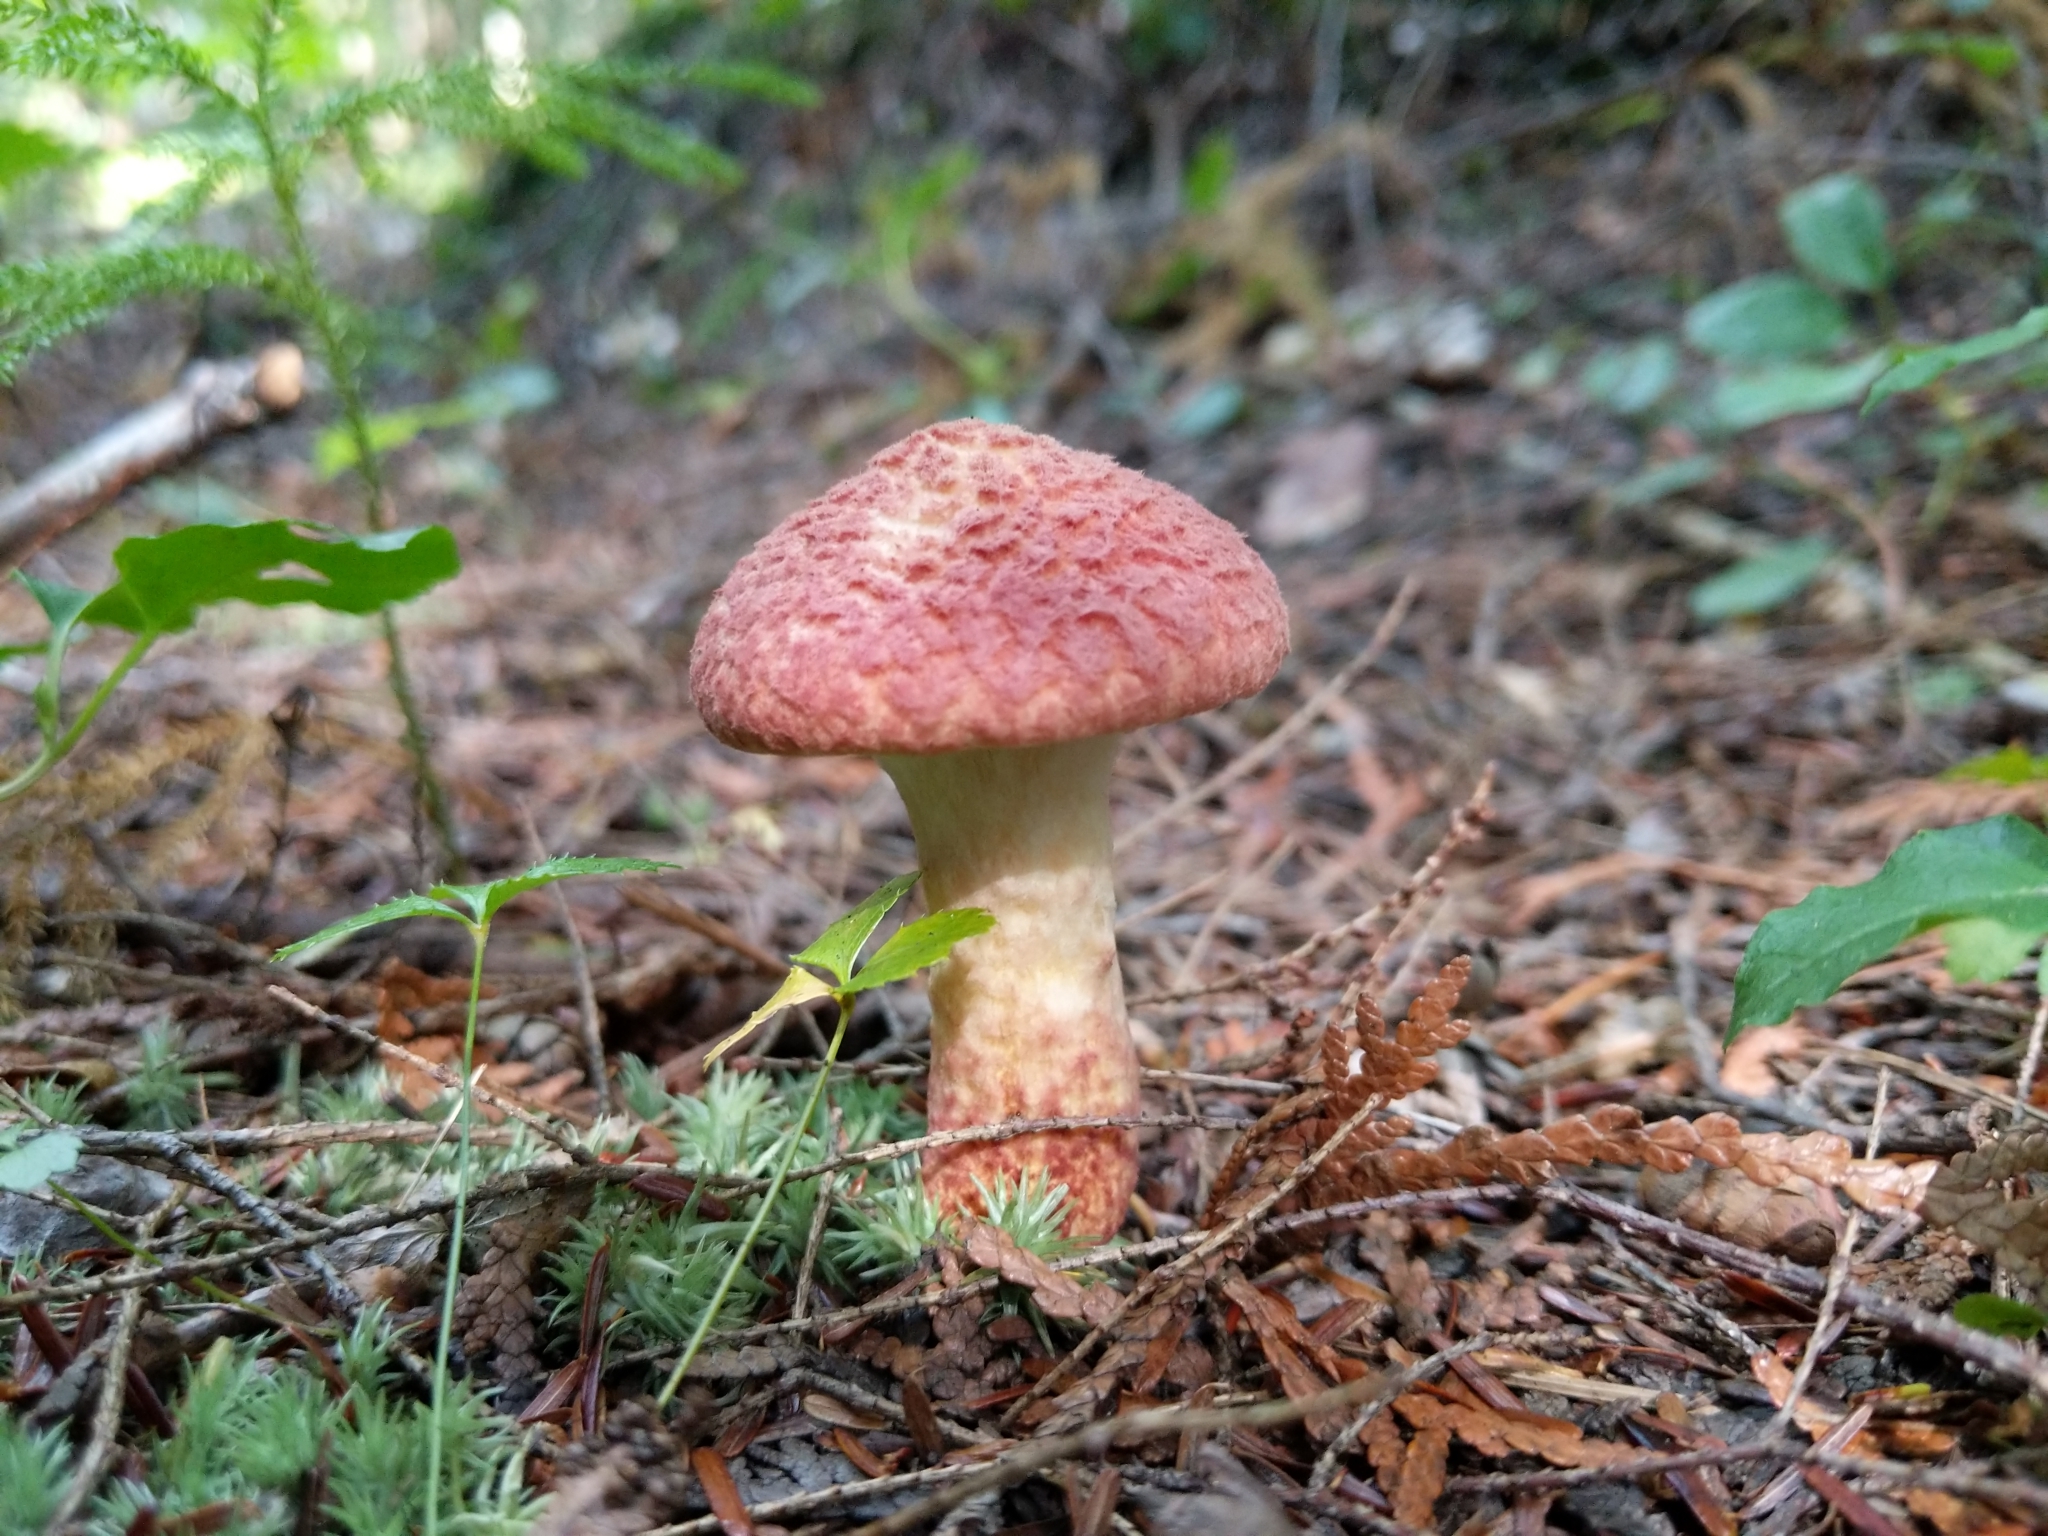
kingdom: Fungi
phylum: Basidiomycota
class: Agaricomycetes
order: Boletales
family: Suillaceae
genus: Suillus
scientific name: Suillus spraguei
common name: Painted suillus
